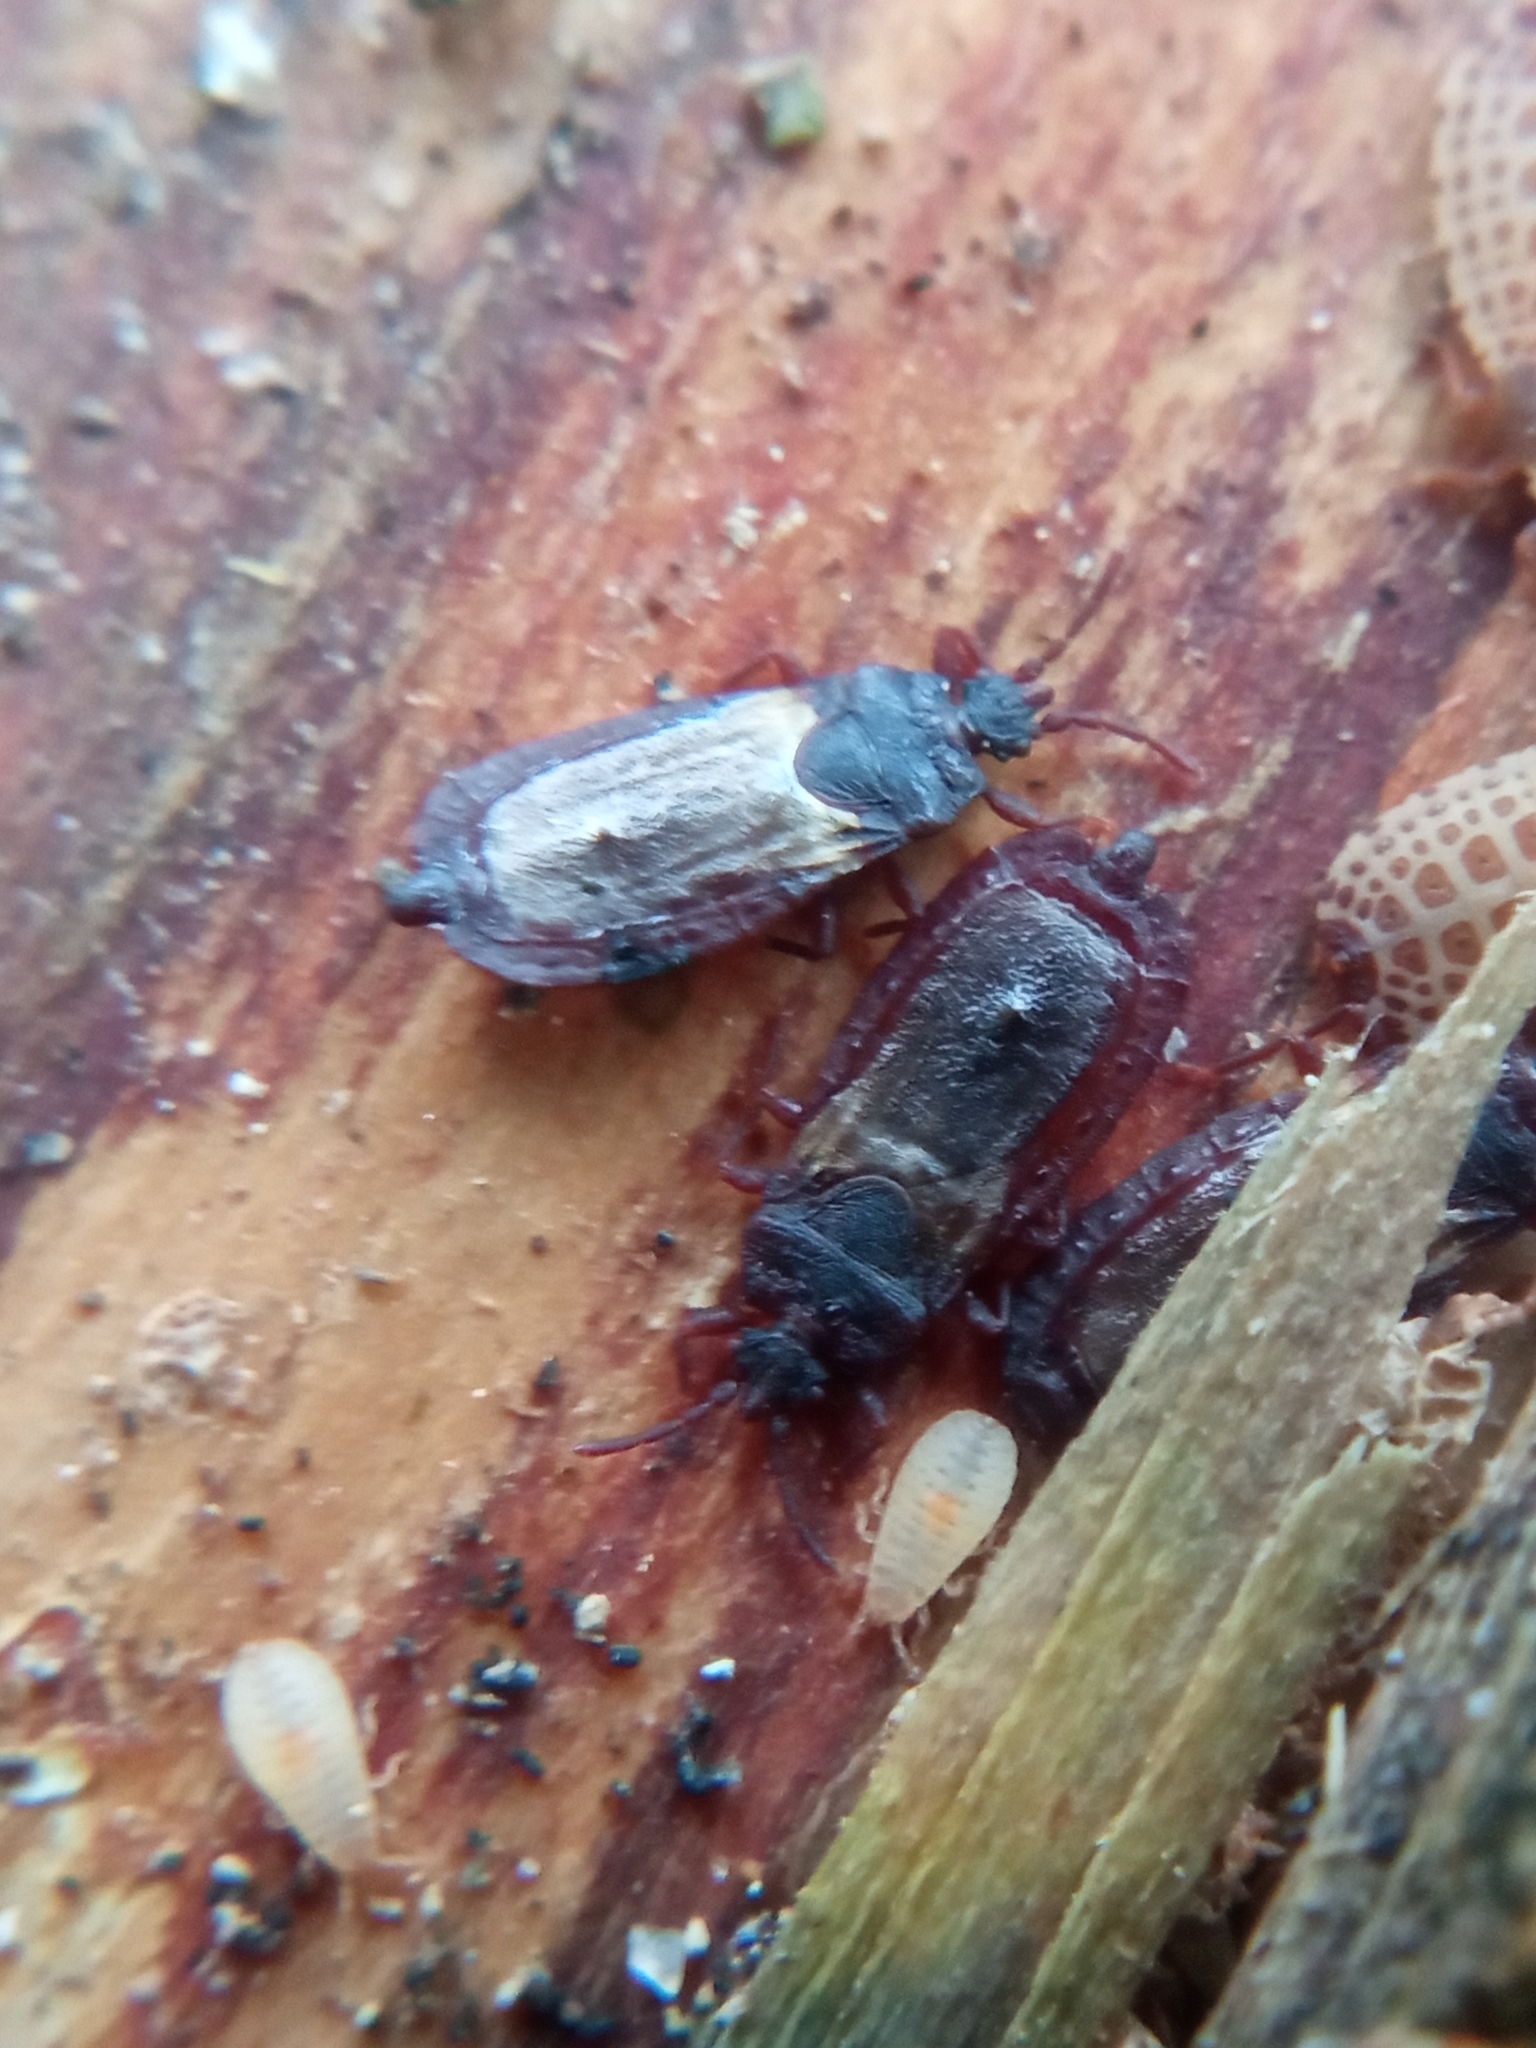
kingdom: Animalia
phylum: Arthropoda
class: Insecta
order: Hemiptera
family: Aradidae
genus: Aneurus
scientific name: Aneurus laevis
